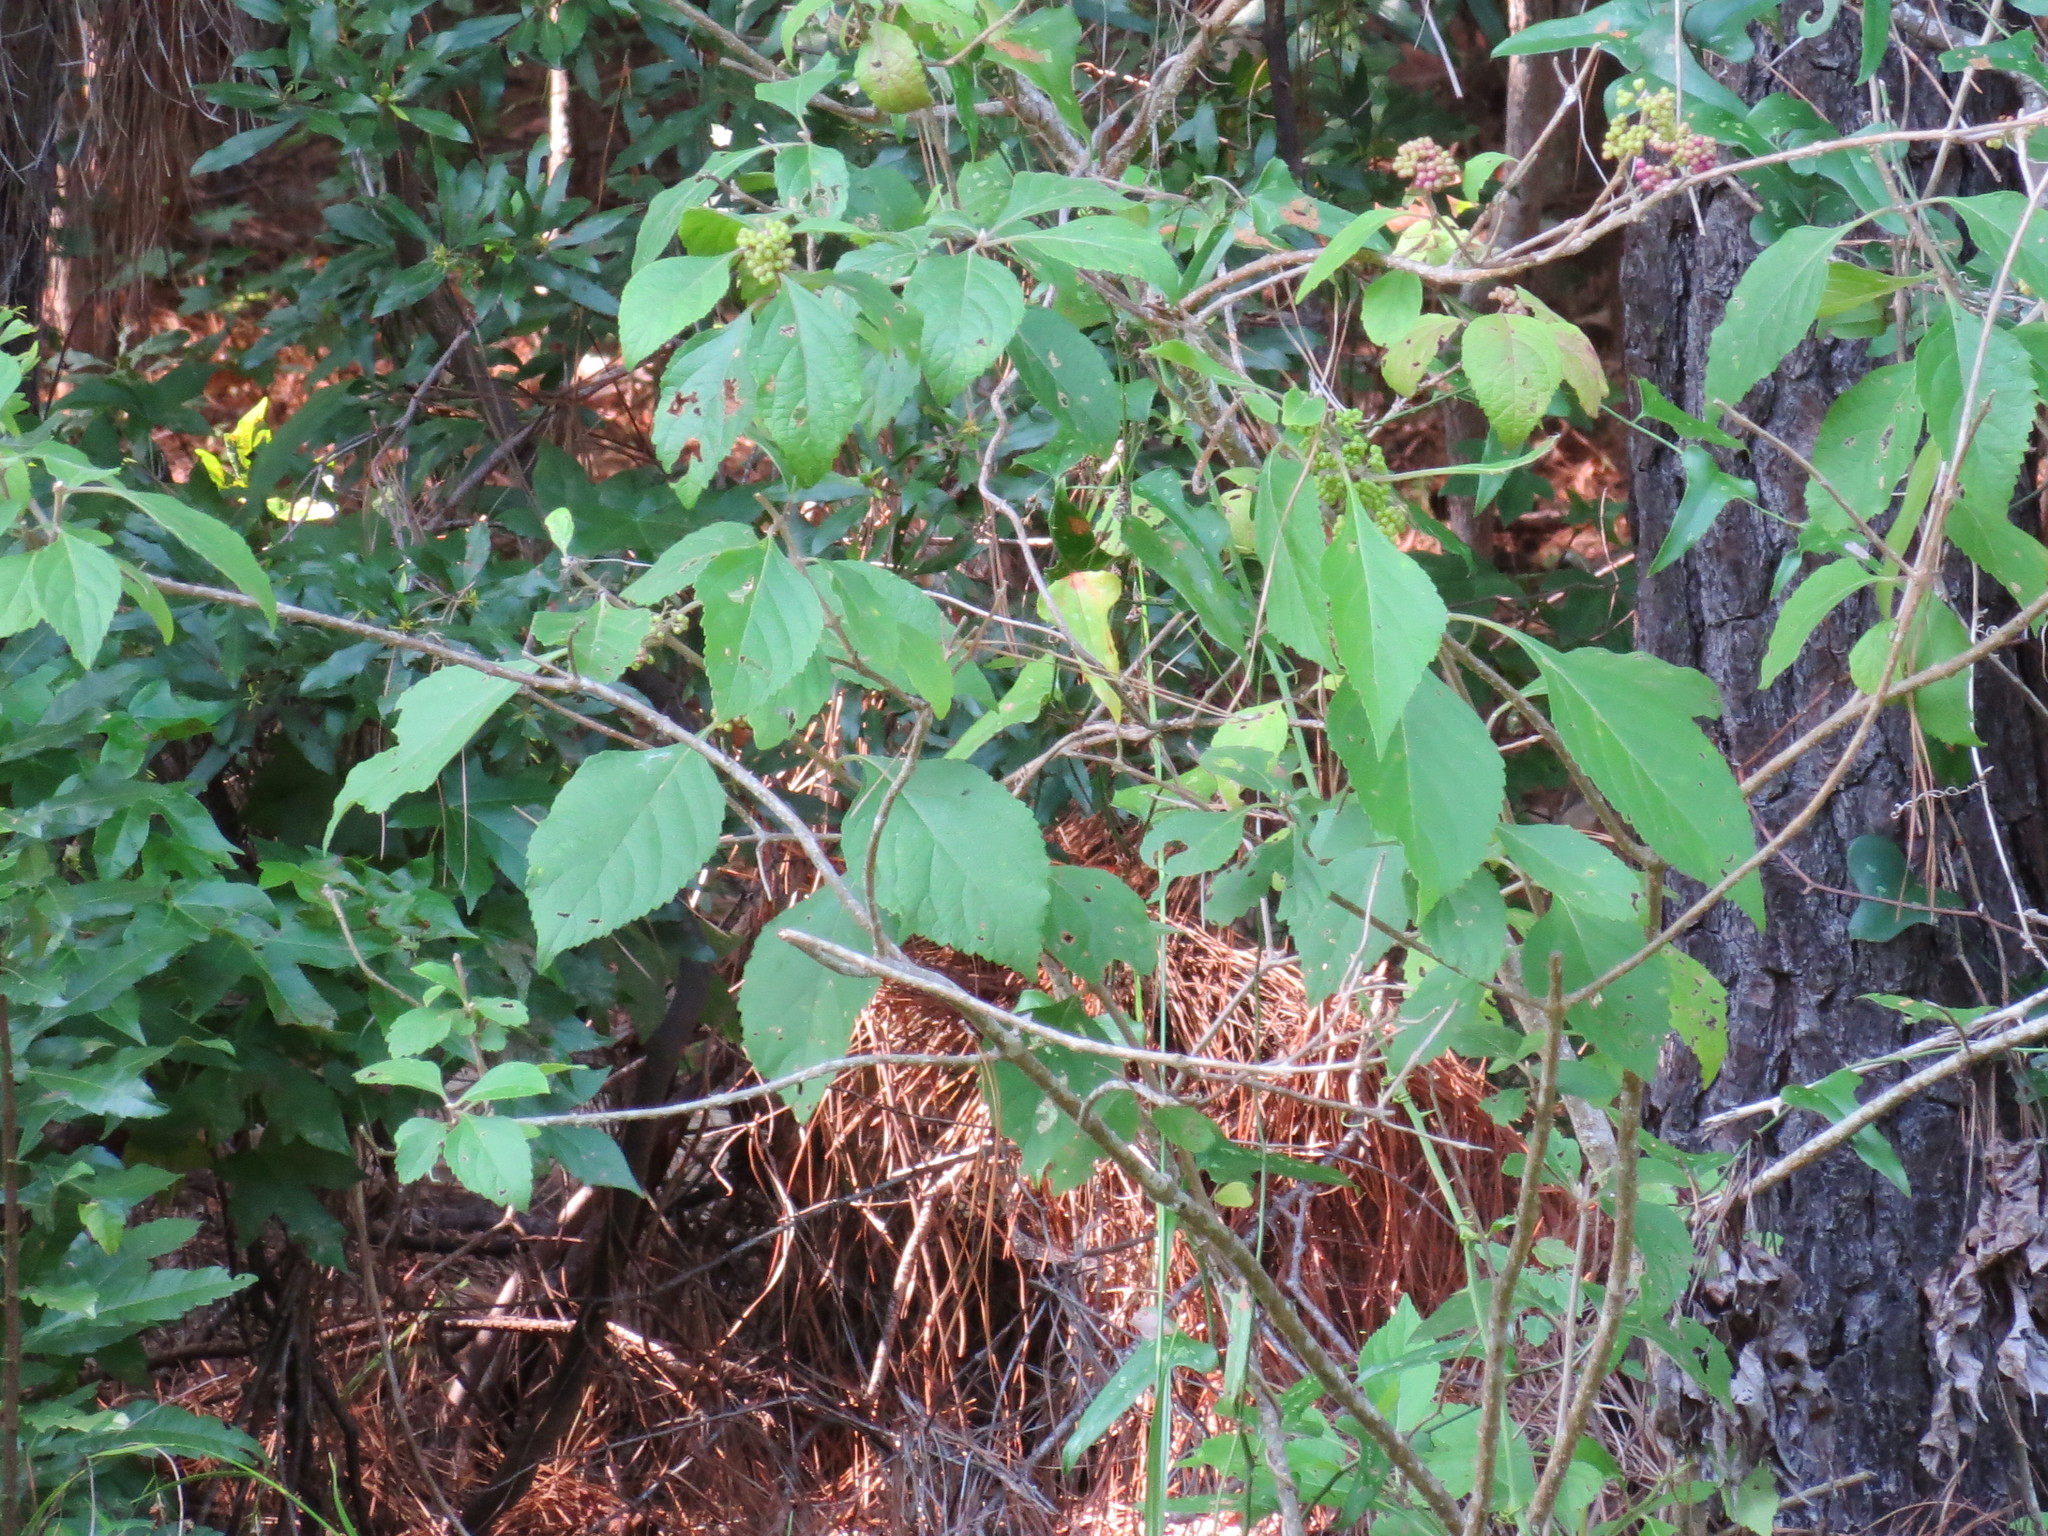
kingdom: Plantae
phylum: Tracheophyta
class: Magnoliopsida
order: Lamiales
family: Lamiaceae
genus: Callicarpa
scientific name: Callicarpa americana
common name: American beautyberry
